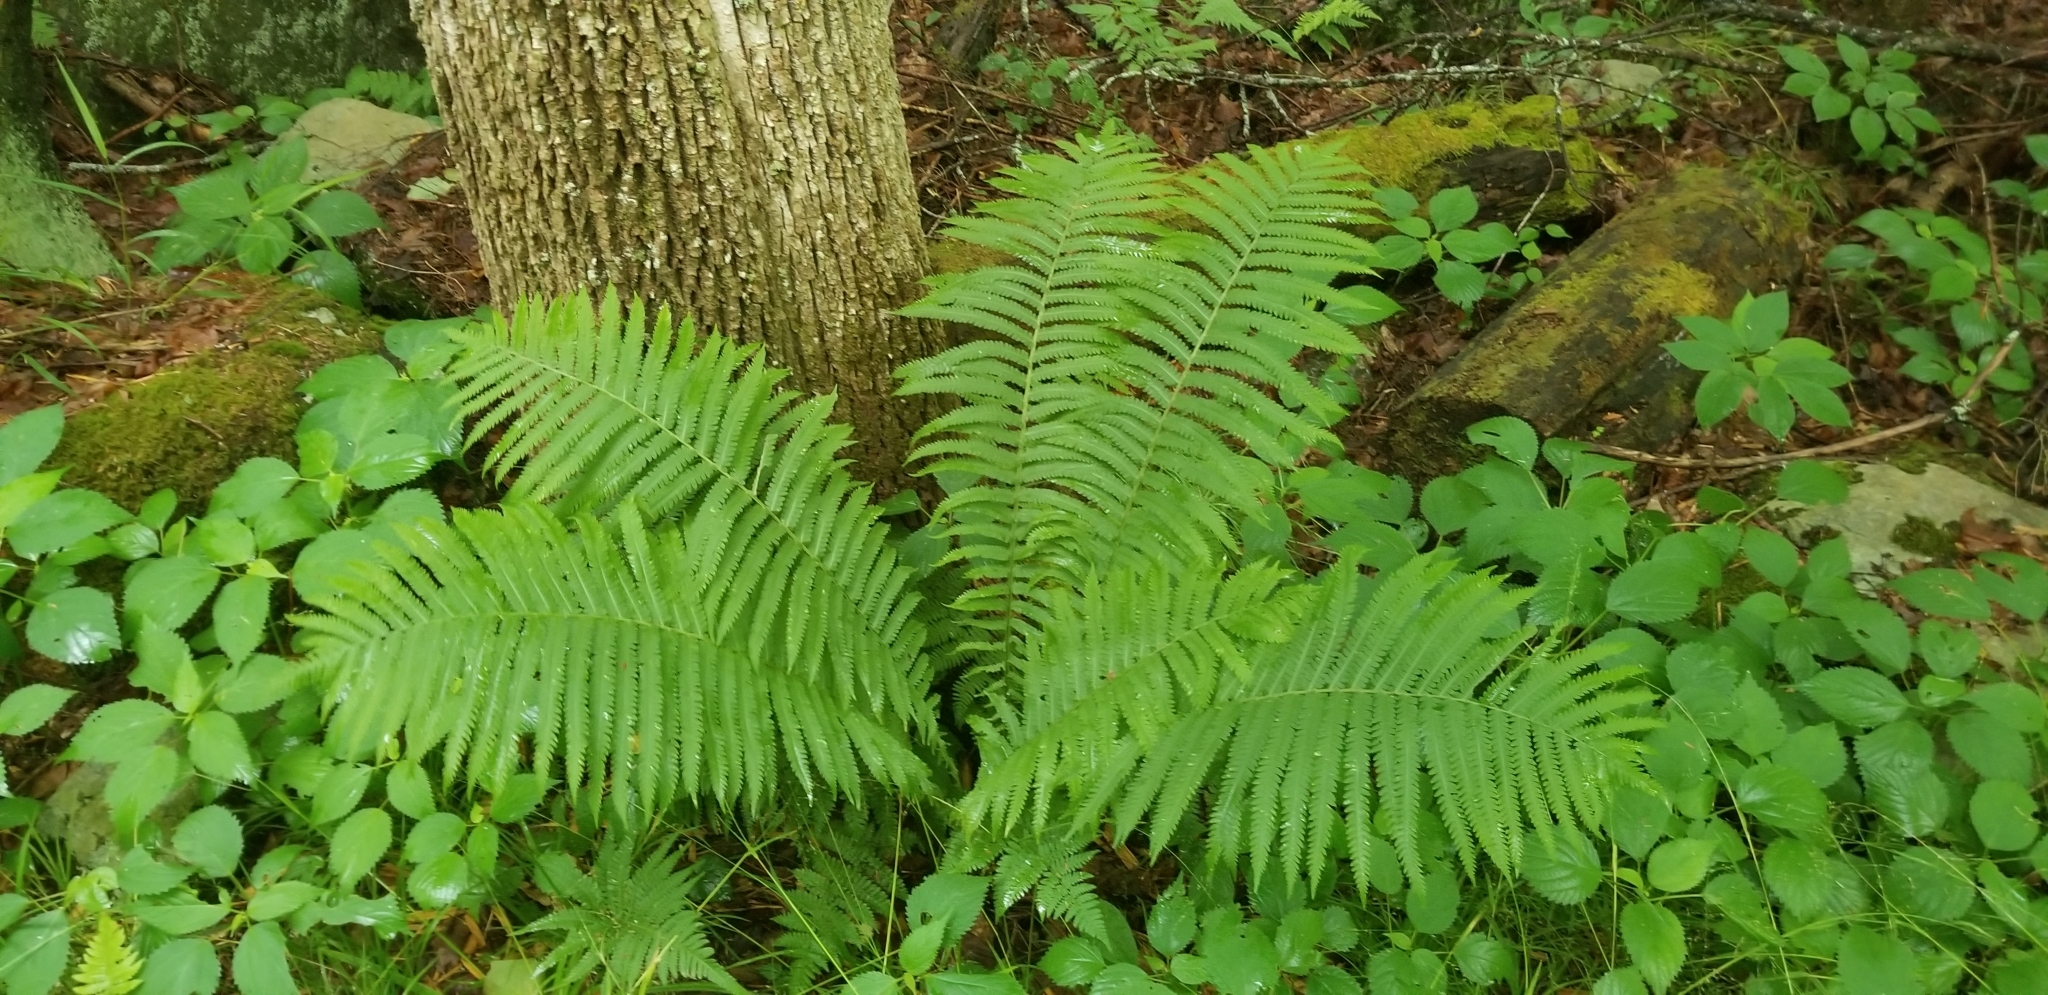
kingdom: Plantae
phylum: Tracheophyta
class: Polypodiopsida
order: Polypodiales
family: Onocleaceae
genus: Matteuccia
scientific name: Matteuccia struthiopteris
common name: Ostrich fern
